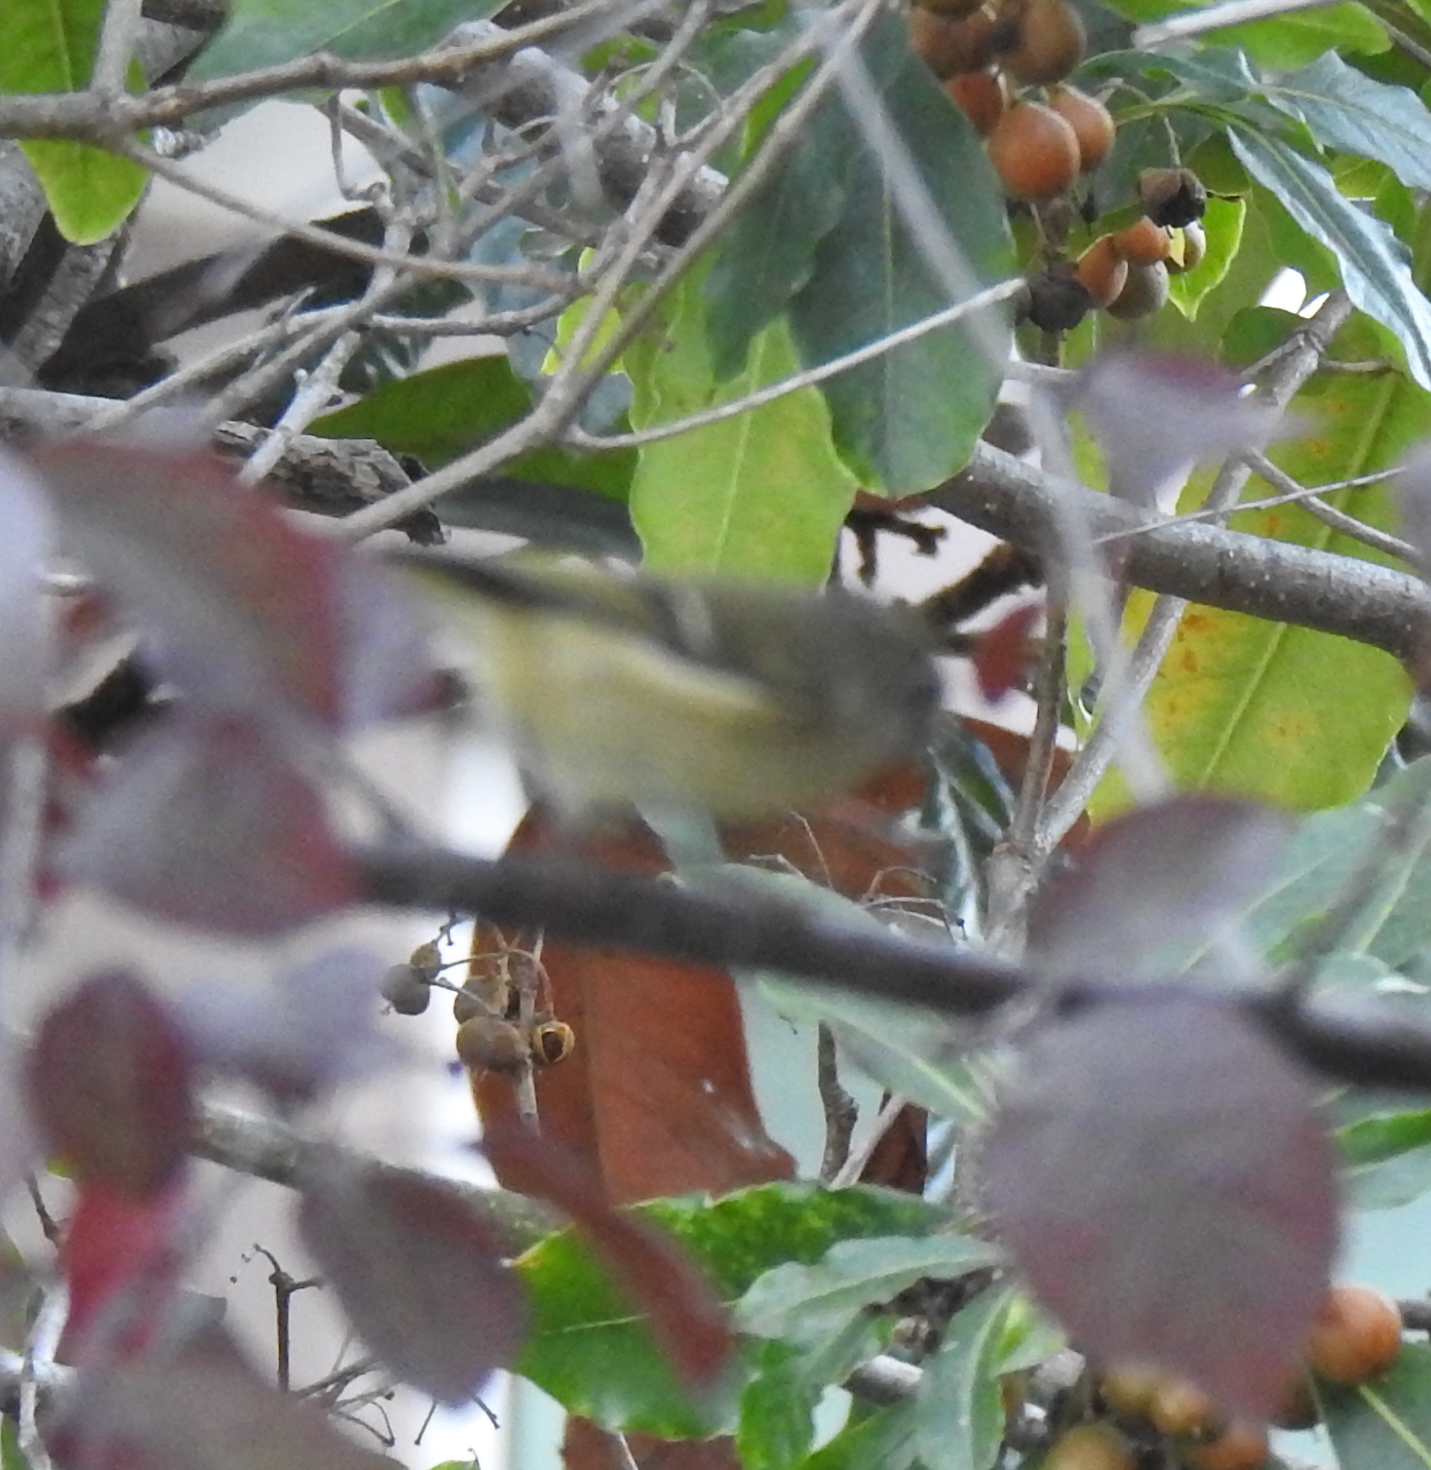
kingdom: Animalia
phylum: Chordata
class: Aves
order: Passeriformes
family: Regulidae
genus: Regulus
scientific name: Regulus calendula
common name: Ruby-crowned kinglet
